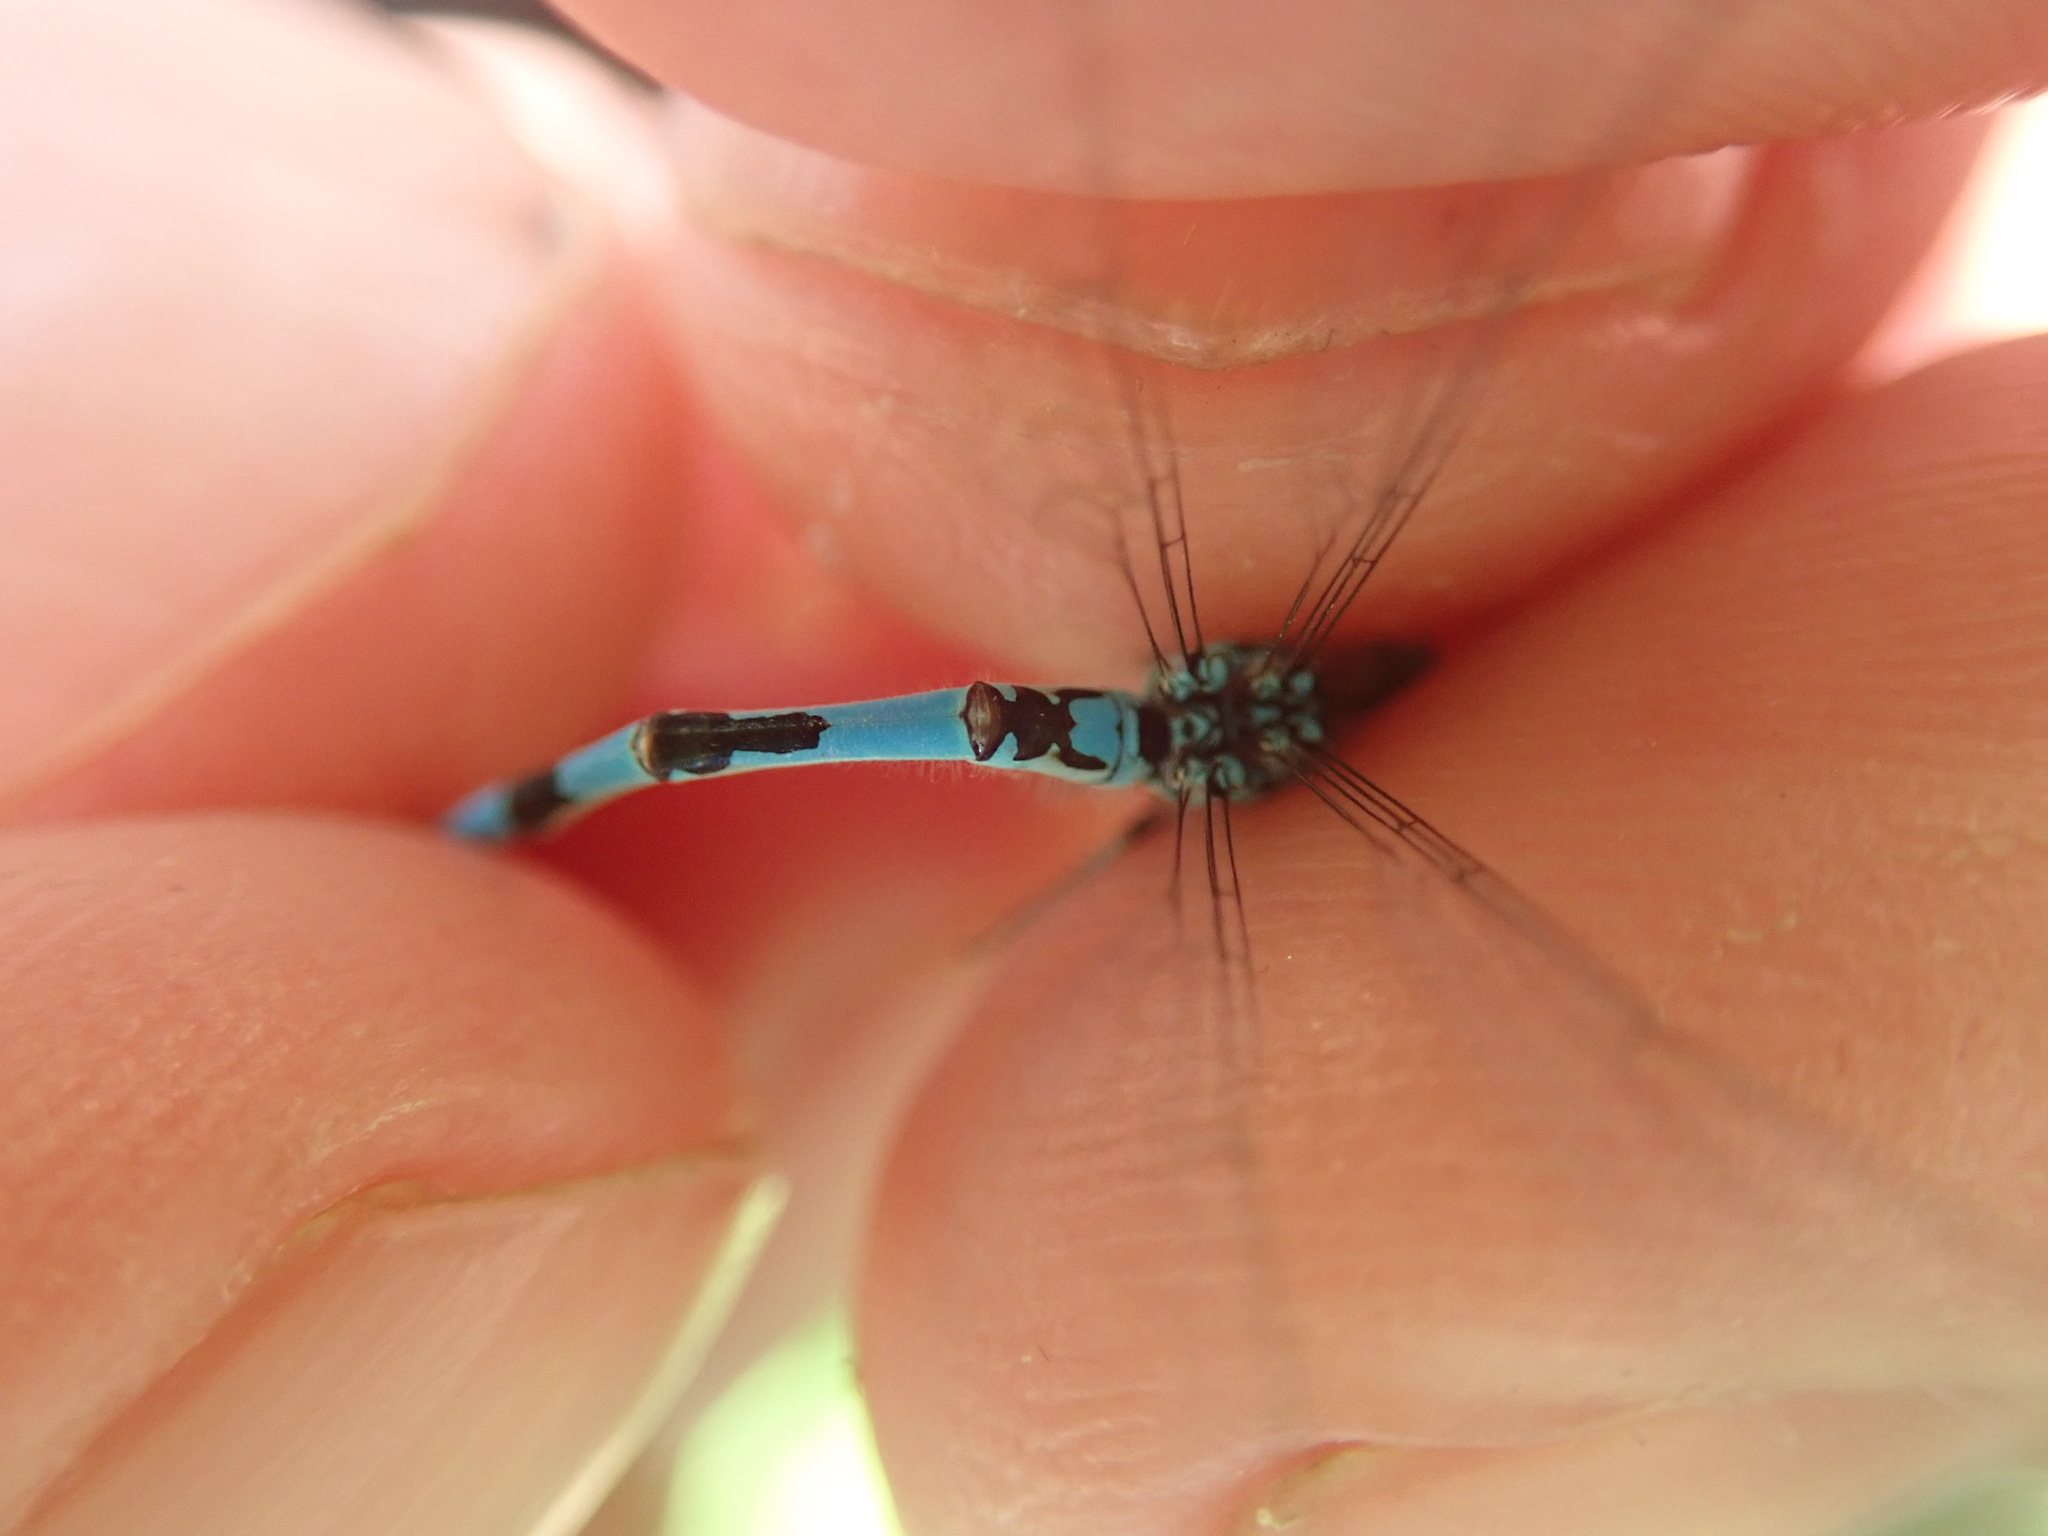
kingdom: Animalia
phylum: Arthropoda
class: Insecta
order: Odonata
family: Coenagrionidae
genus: Coenagrion
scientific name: Coenagrion mercuriale
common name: Southern damselfly
